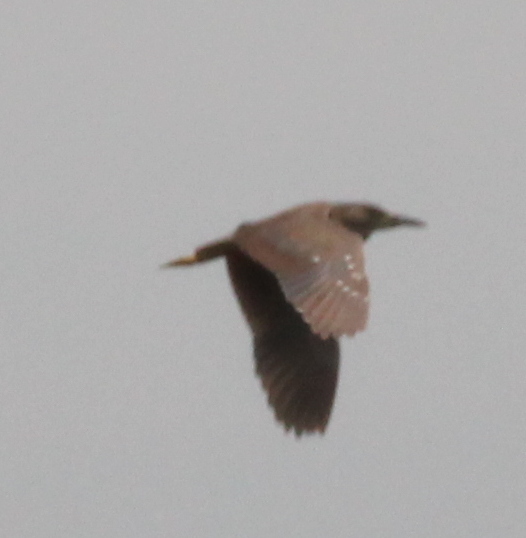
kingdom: Animalia
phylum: Chordata
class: Aves
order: Pelecaniformes
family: Ardeidae
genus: Nycticorax
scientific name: Nycticorax nycticorax
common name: Black-crowned night heron
